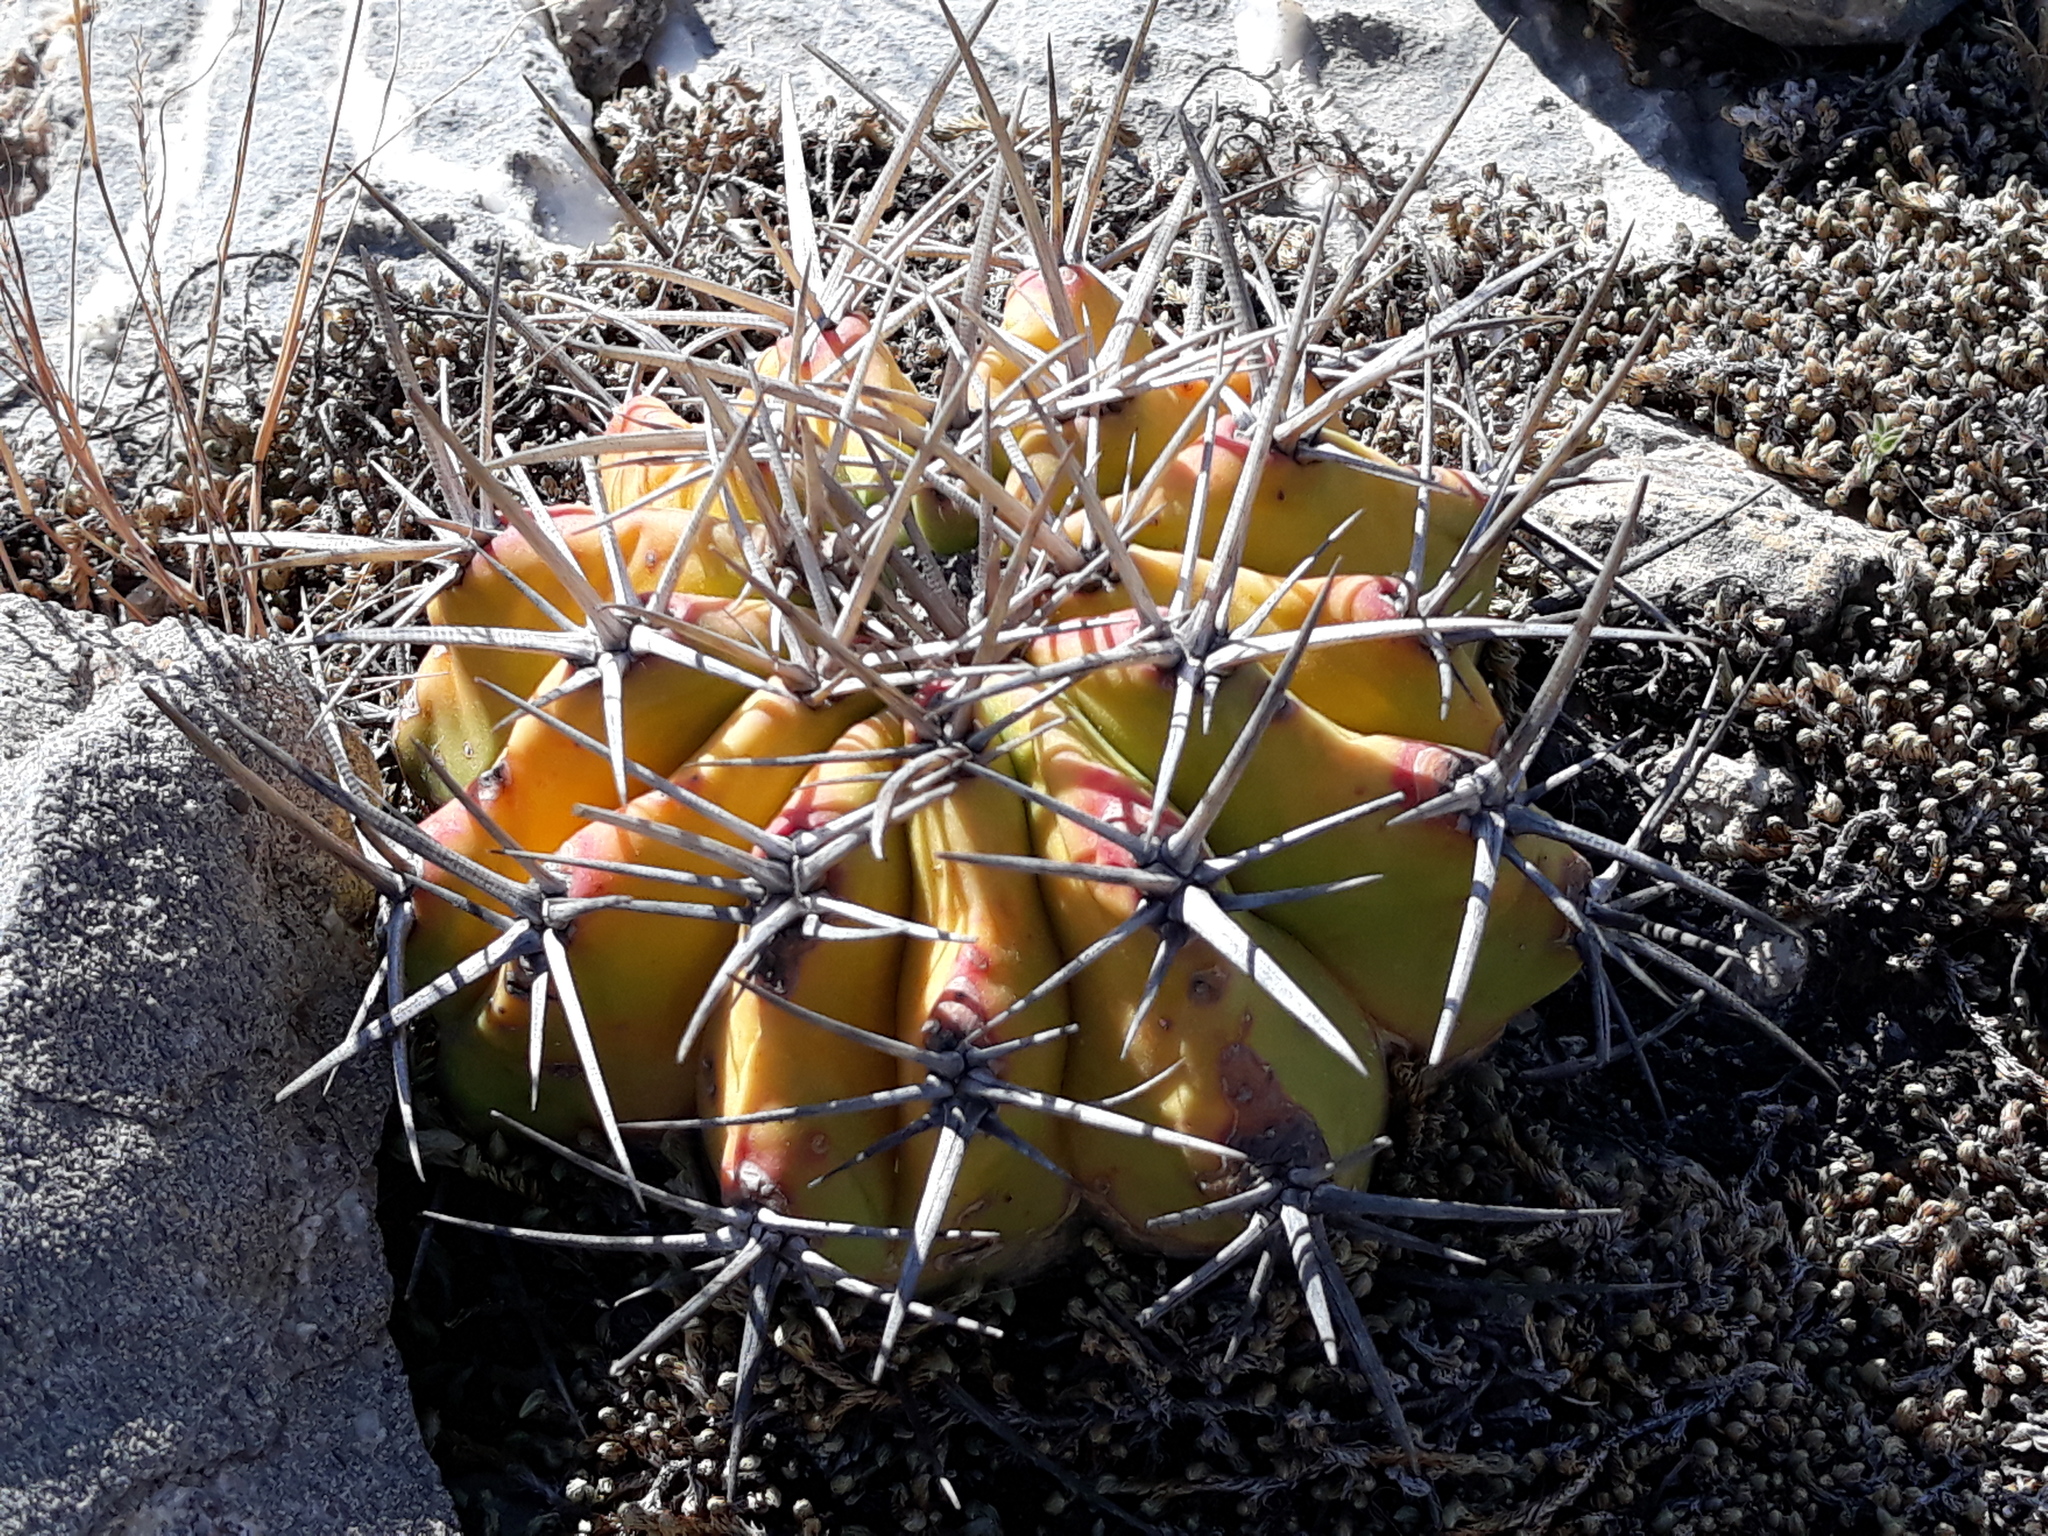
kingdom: Plantae
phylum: Tracheophyta
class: Magnoliopsida
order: Caryophyllales
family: Cactaceae
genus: Echinocactus
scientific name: Echinocactus platyacanthus
